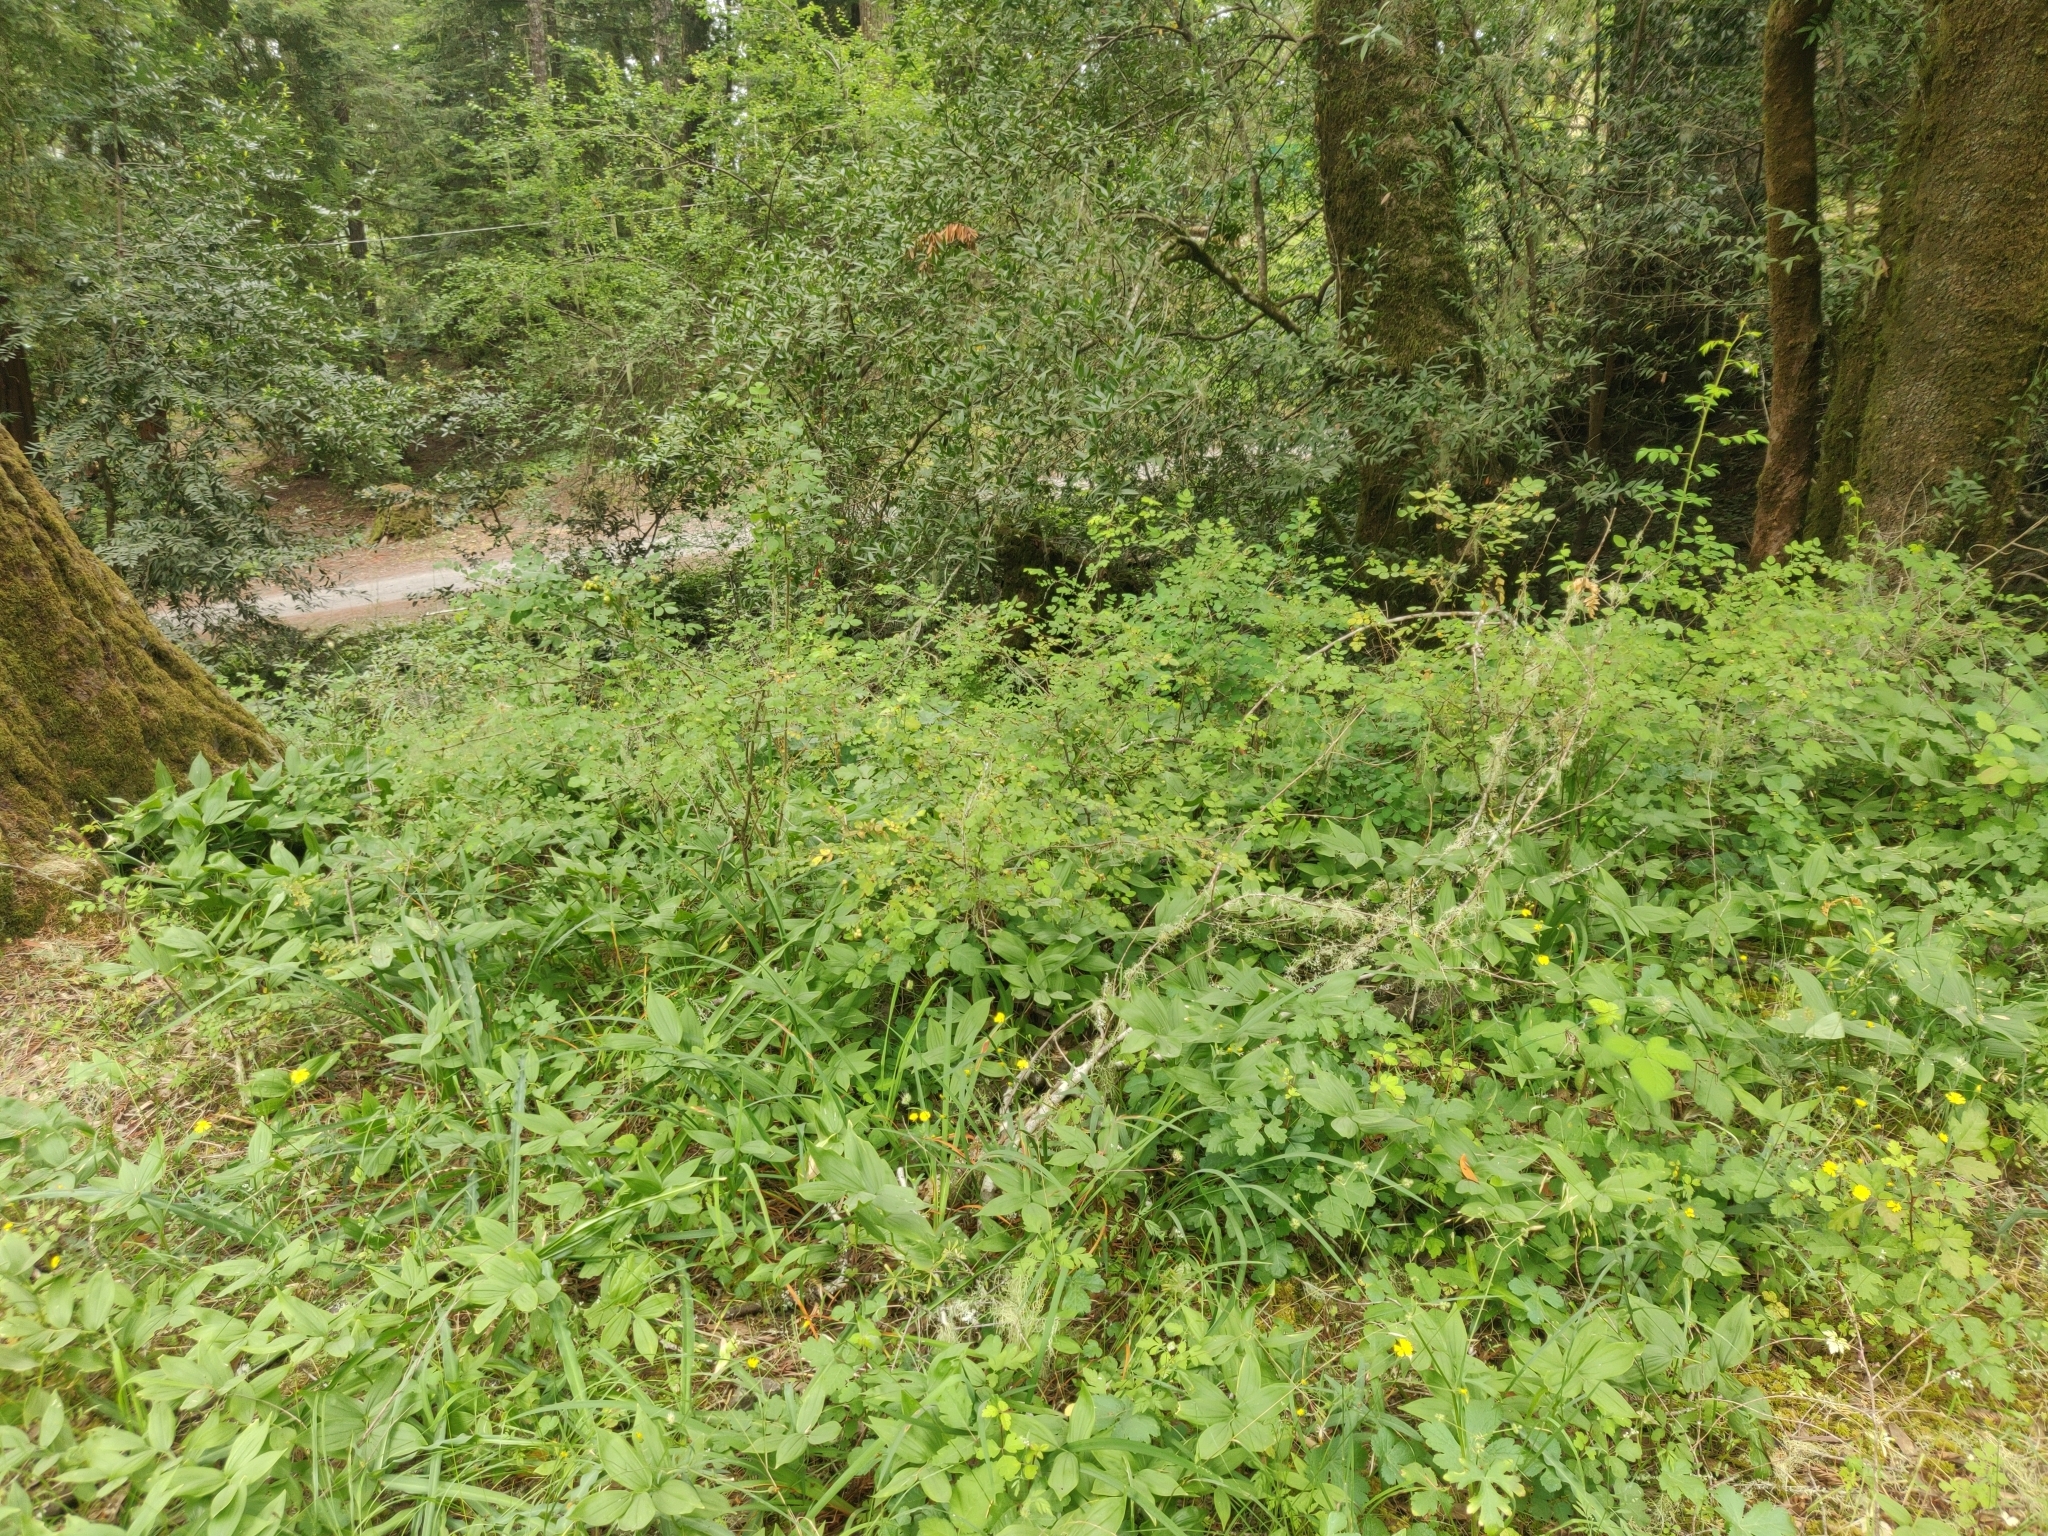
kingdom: Animalia
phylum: Arthropoda
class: Insecta
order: Hymenoptera
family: Cynipidae
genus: Diplolepis
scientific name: Diplolepis polita
